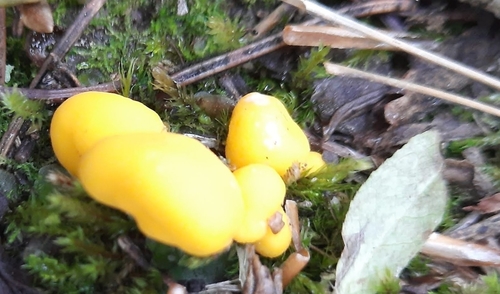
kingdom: Fungi
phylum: Ascomycota
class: Neolectomycetes
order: Neolectales
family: Neolectaceae
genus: Neolecta
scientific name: Neolecta
